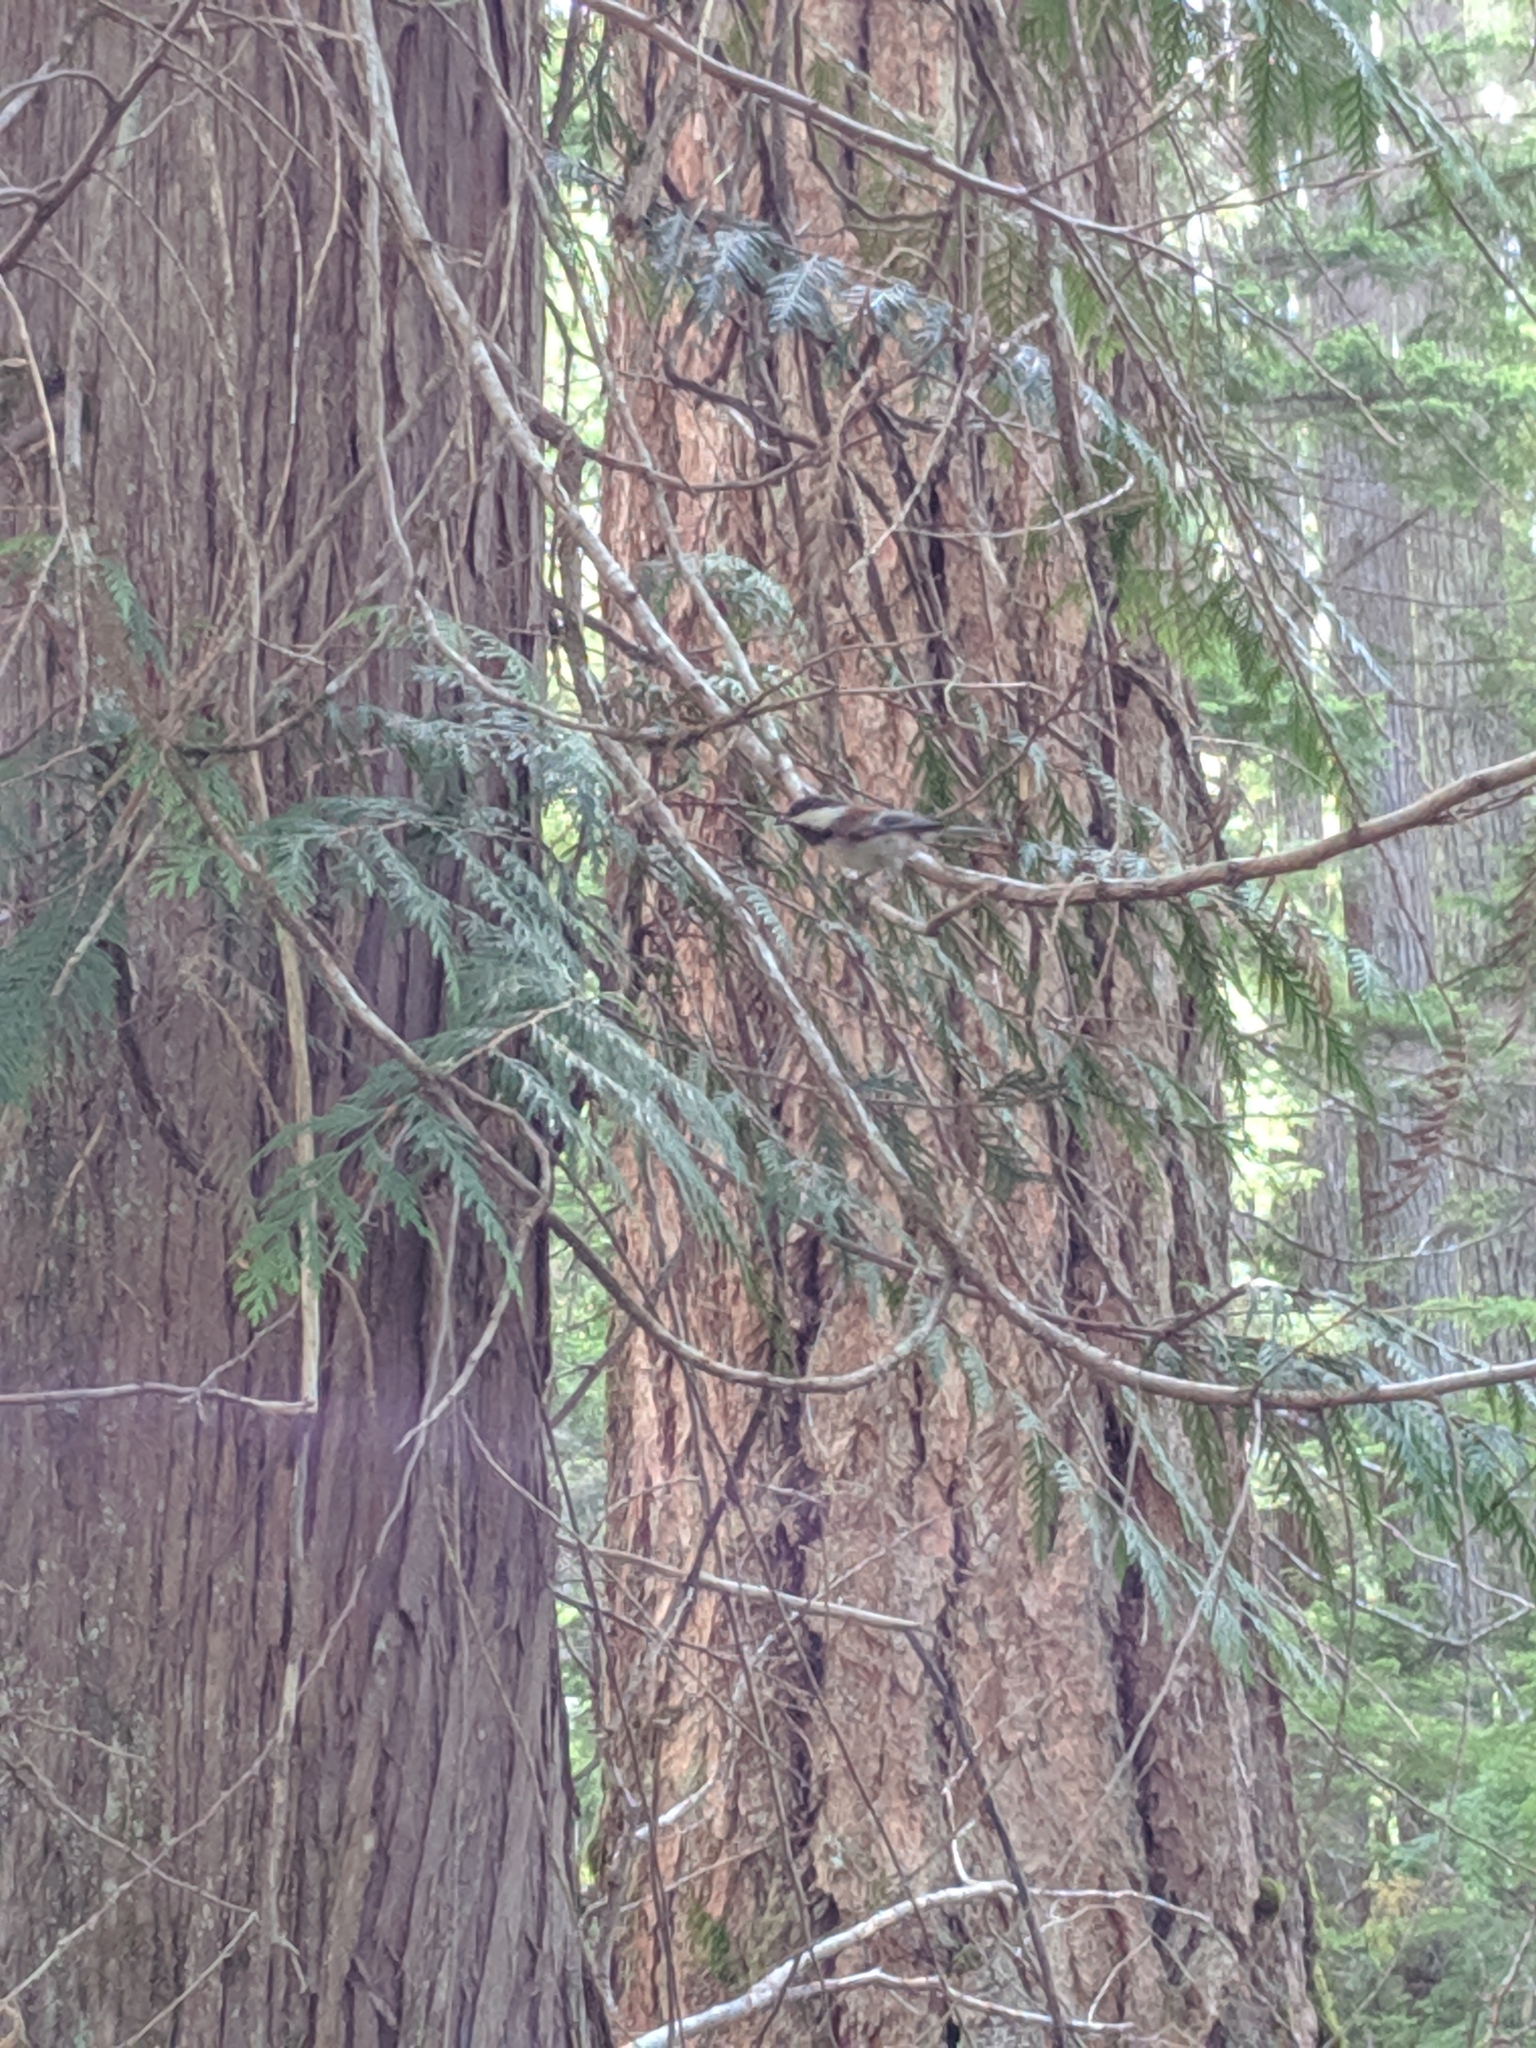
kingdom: Animalia
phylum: Chordata
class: Aves
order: Passeriformes
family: Paridae
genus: Poecile
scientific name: Poecile rufescens
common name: Chestnut-backed chickadee
